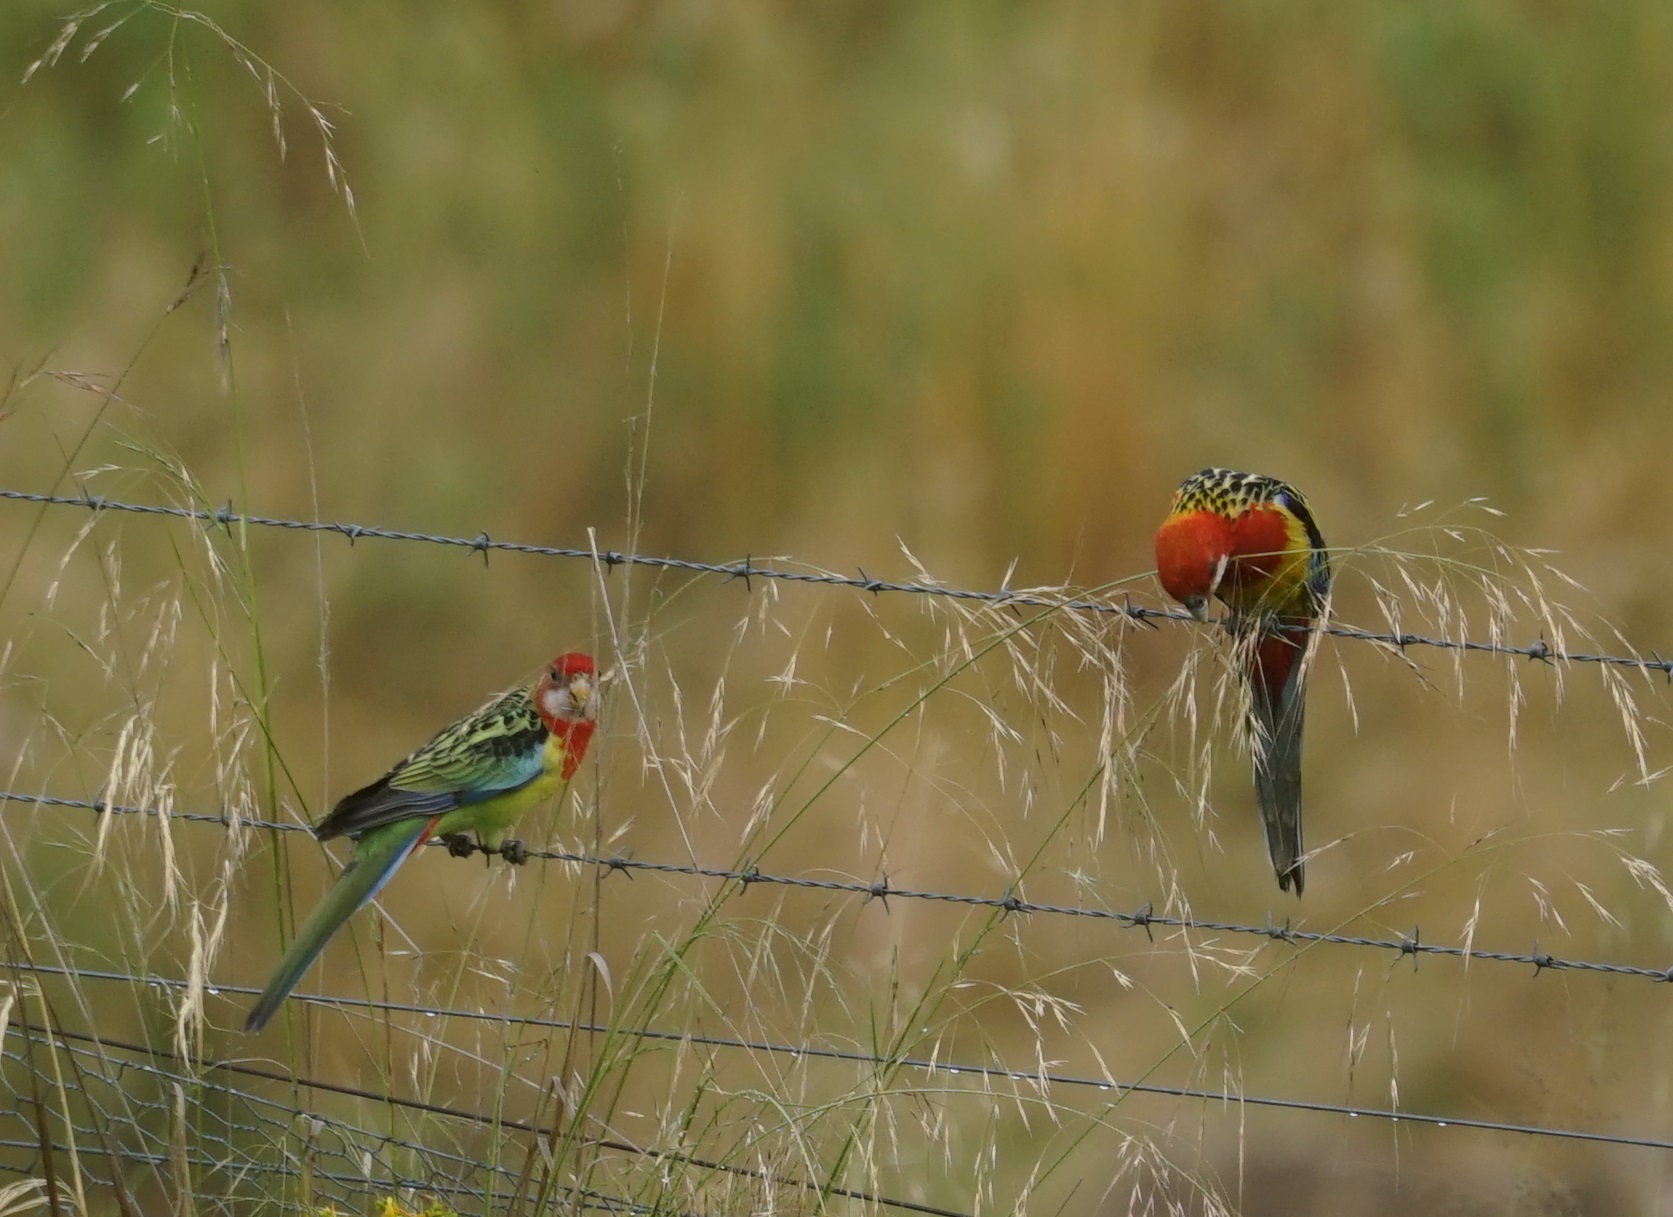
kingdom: Animalia
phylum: Chordata
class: Aves
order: Psittaciformes
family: Psittacidae
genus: Platycercus
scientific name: Platycercus eximius
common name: Eastern rosella
